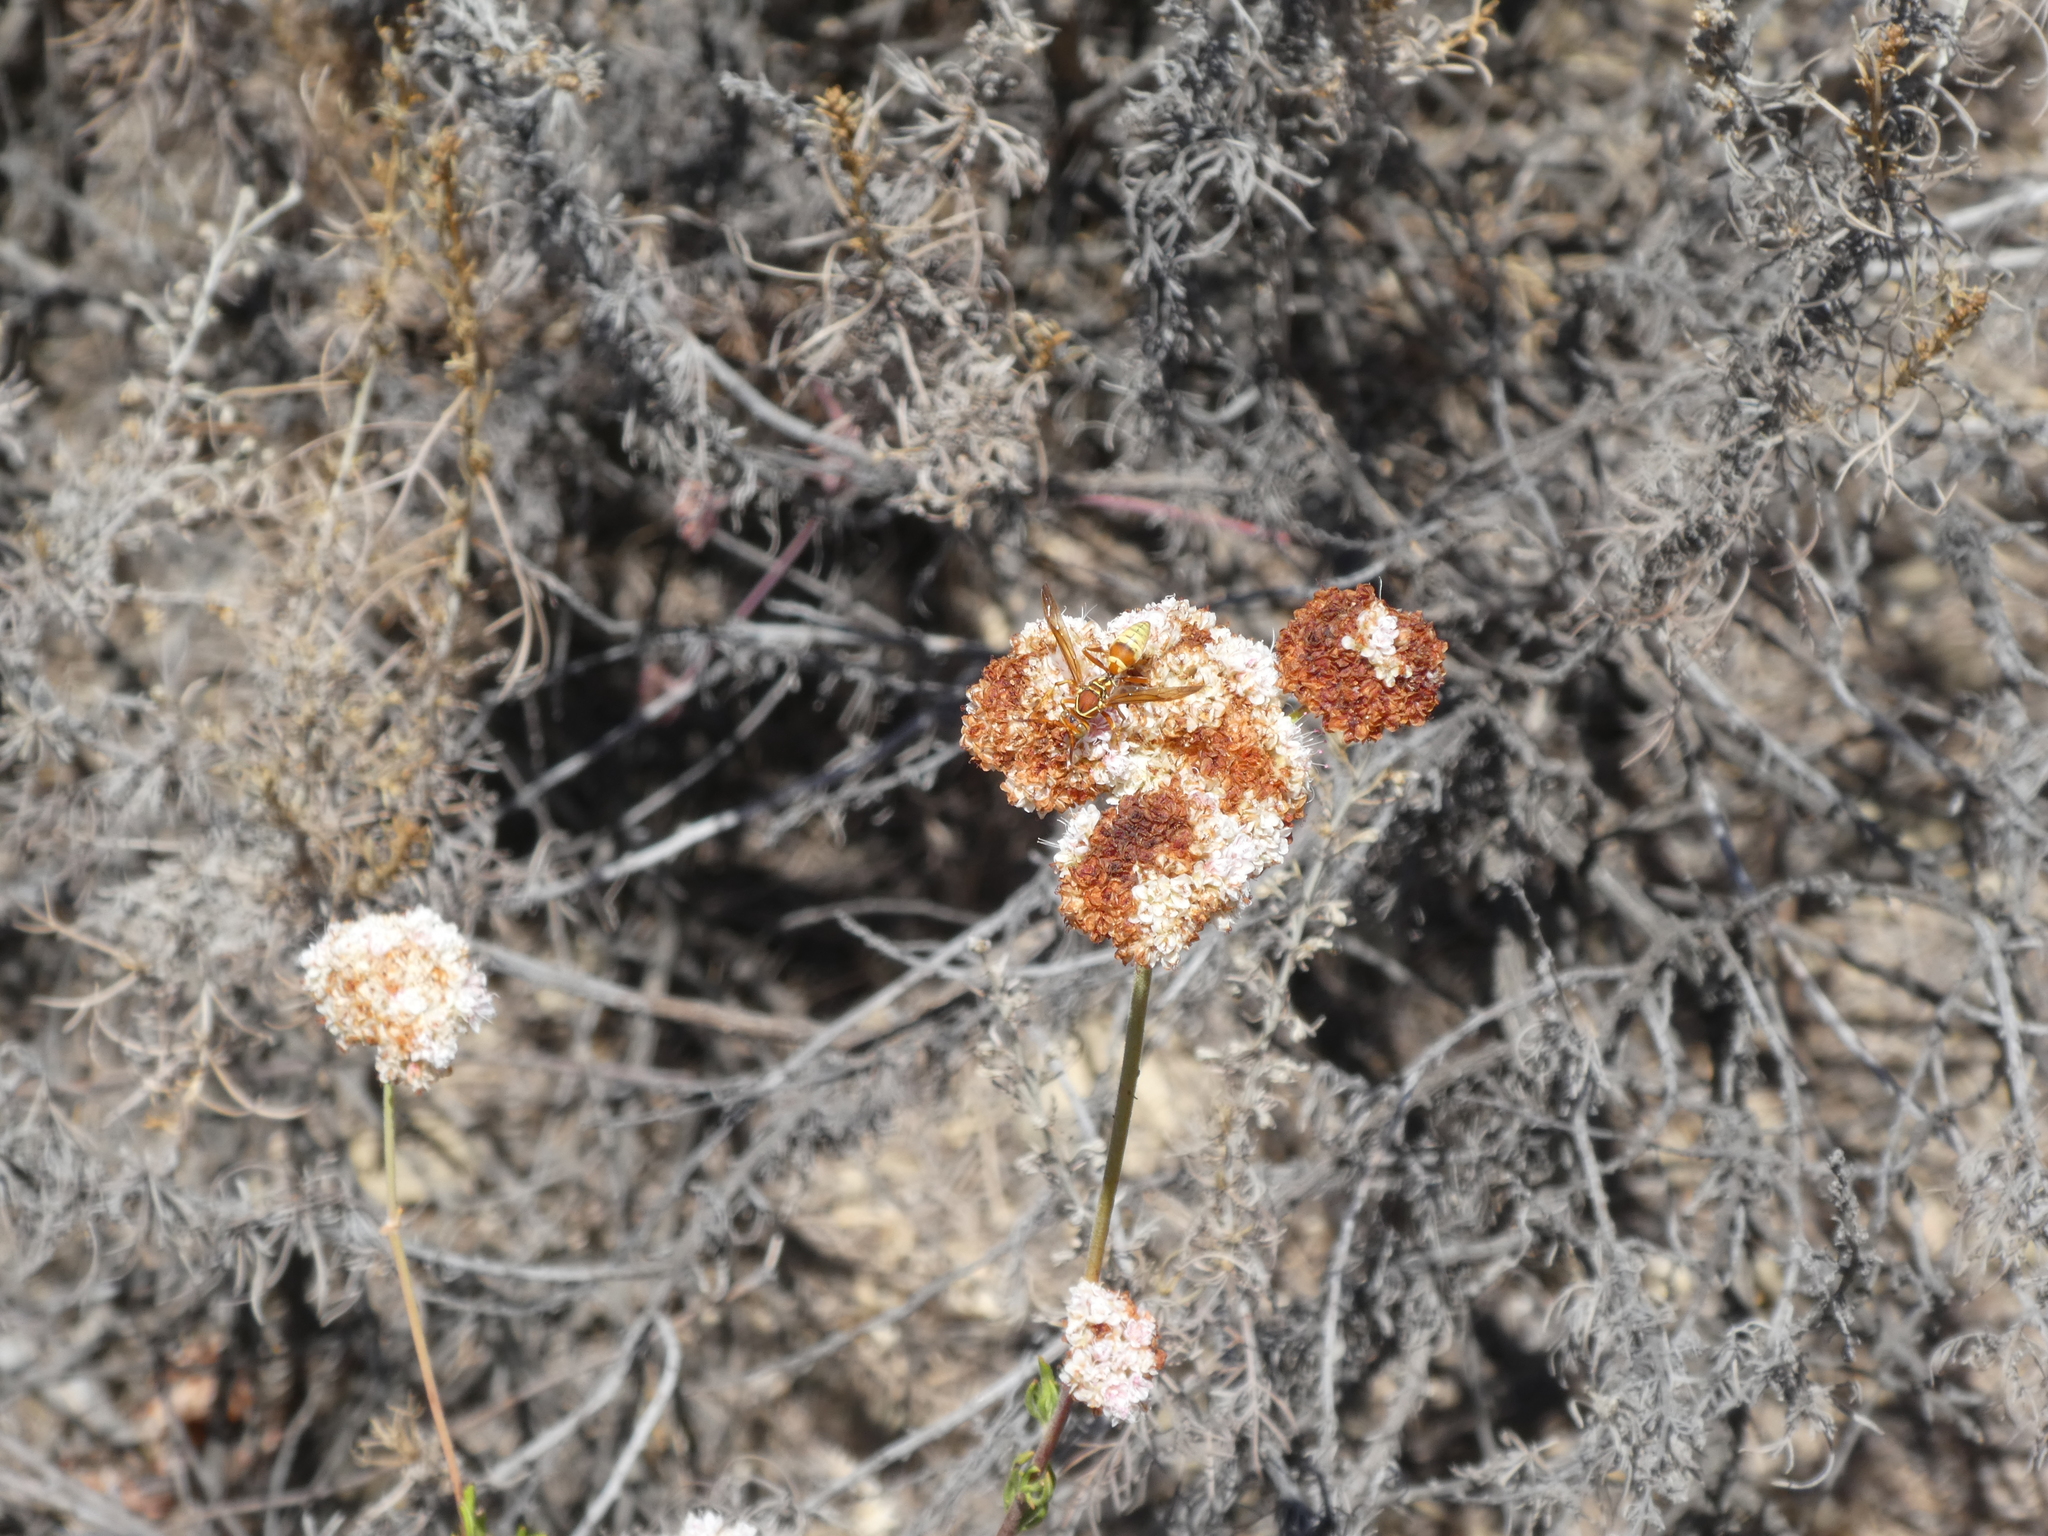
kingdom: Animalia
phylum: Arthropoda
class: Insecta
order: Hymenoptera
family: Eumenidae
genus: Polistes
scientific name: Polistes dorsalis
